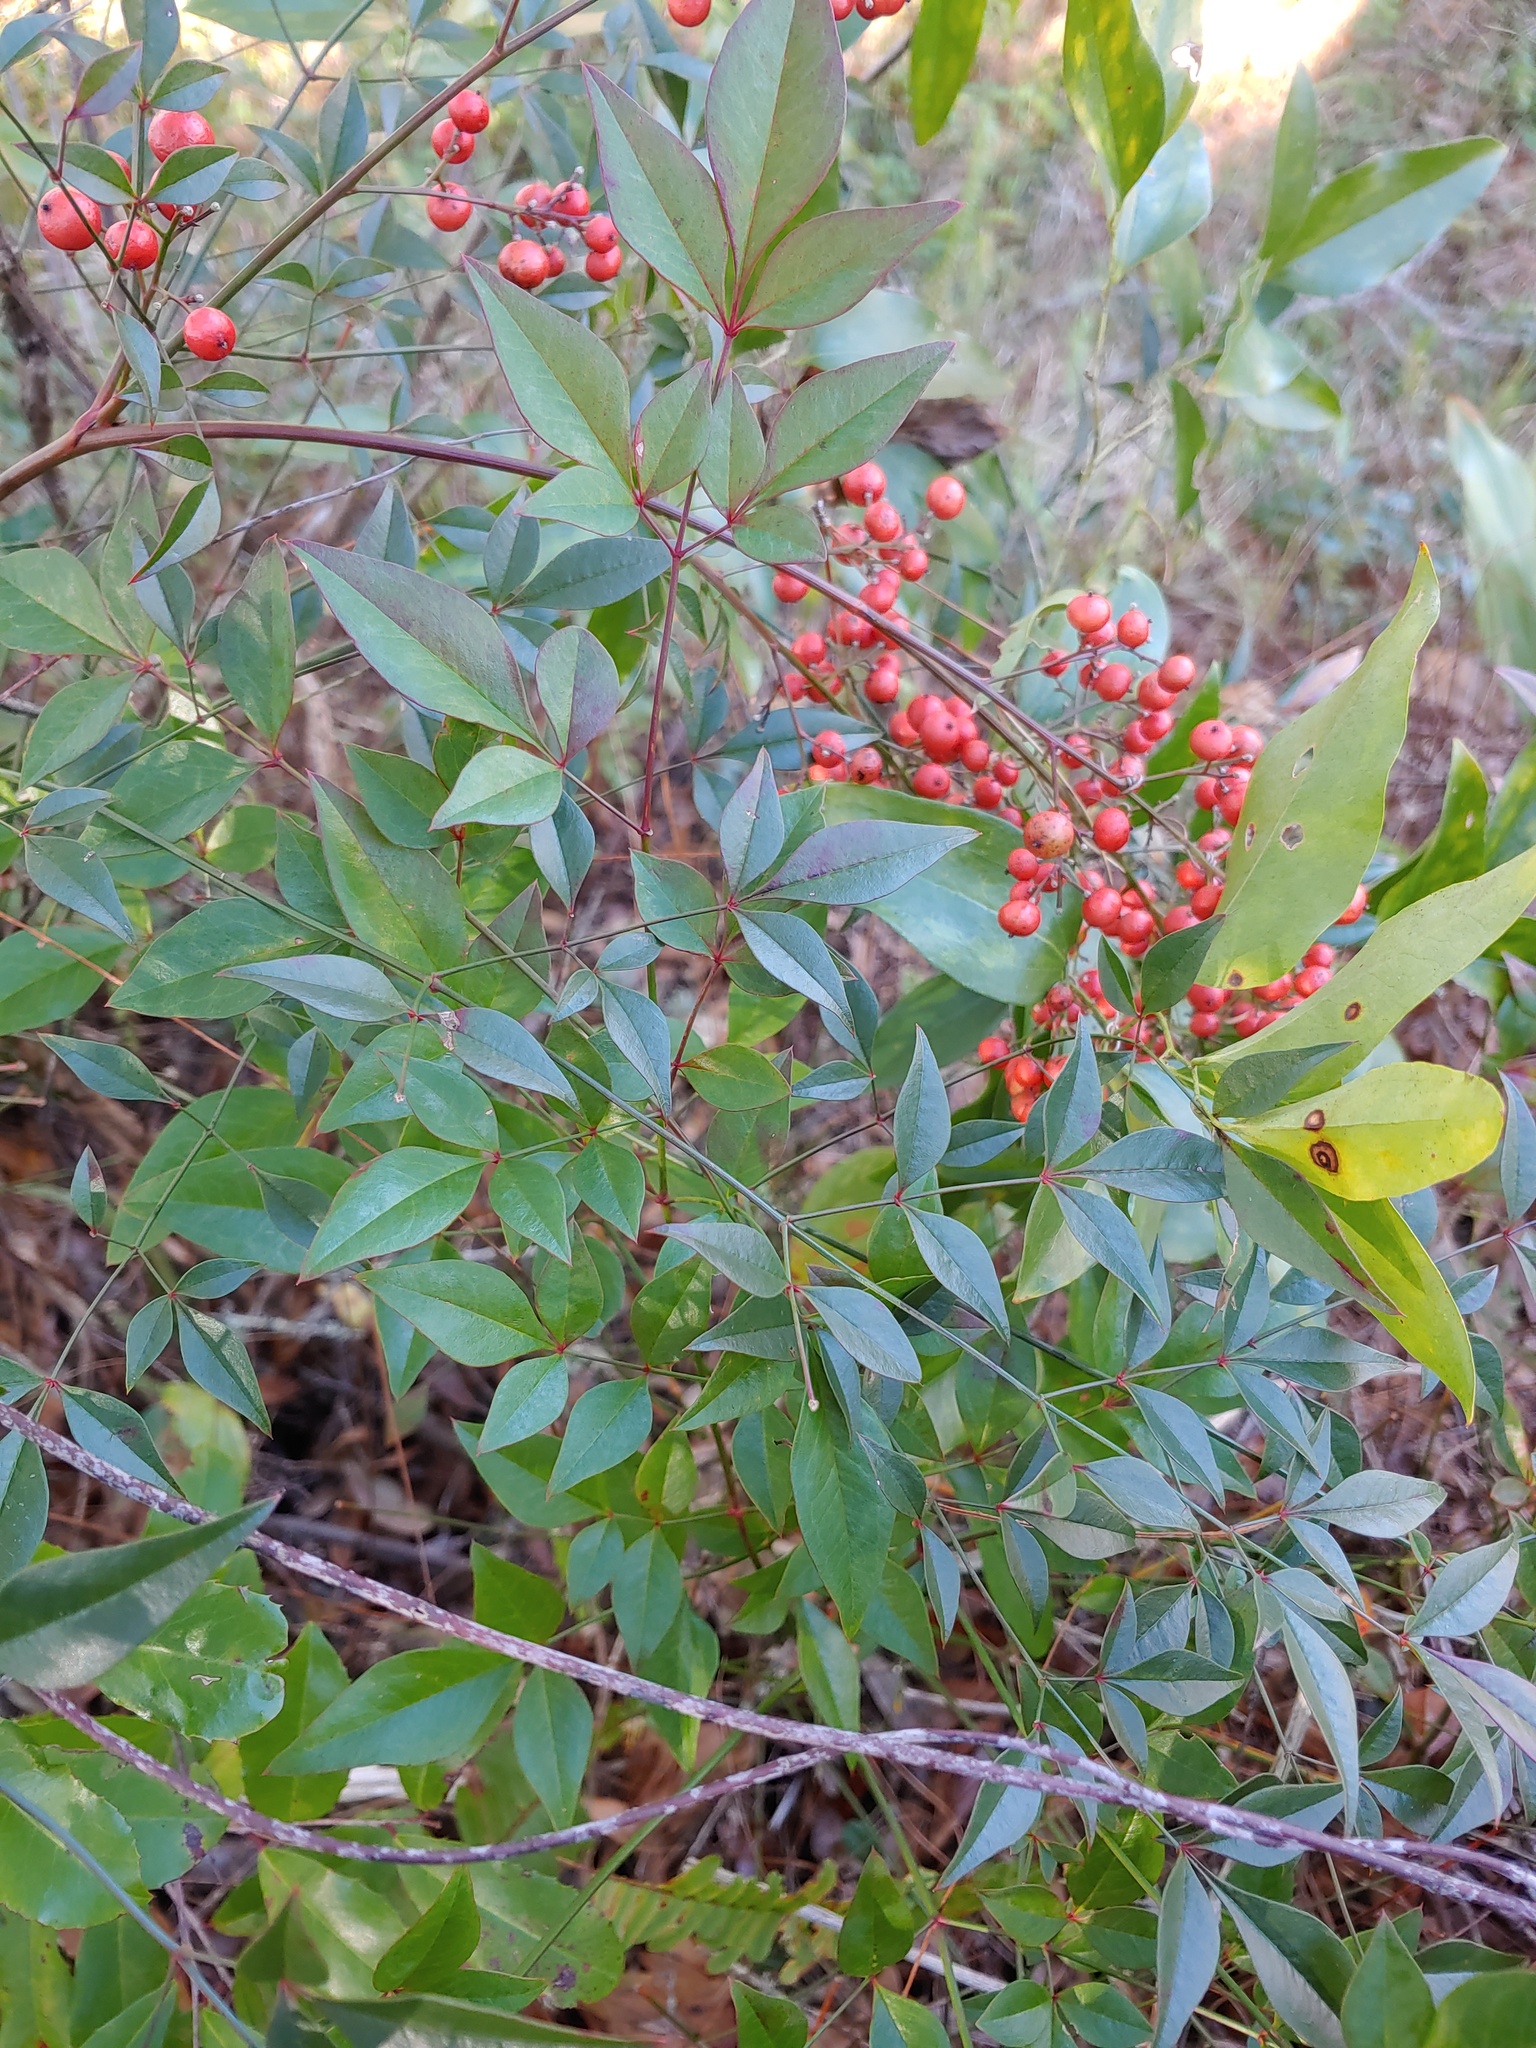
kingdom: Plantae
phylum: Tracheophyta
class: Magnoliopsida
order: Ranunculales
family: Berberidaceae
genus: Nandina
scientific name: Nandina domestica
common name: Sacred bamboo
